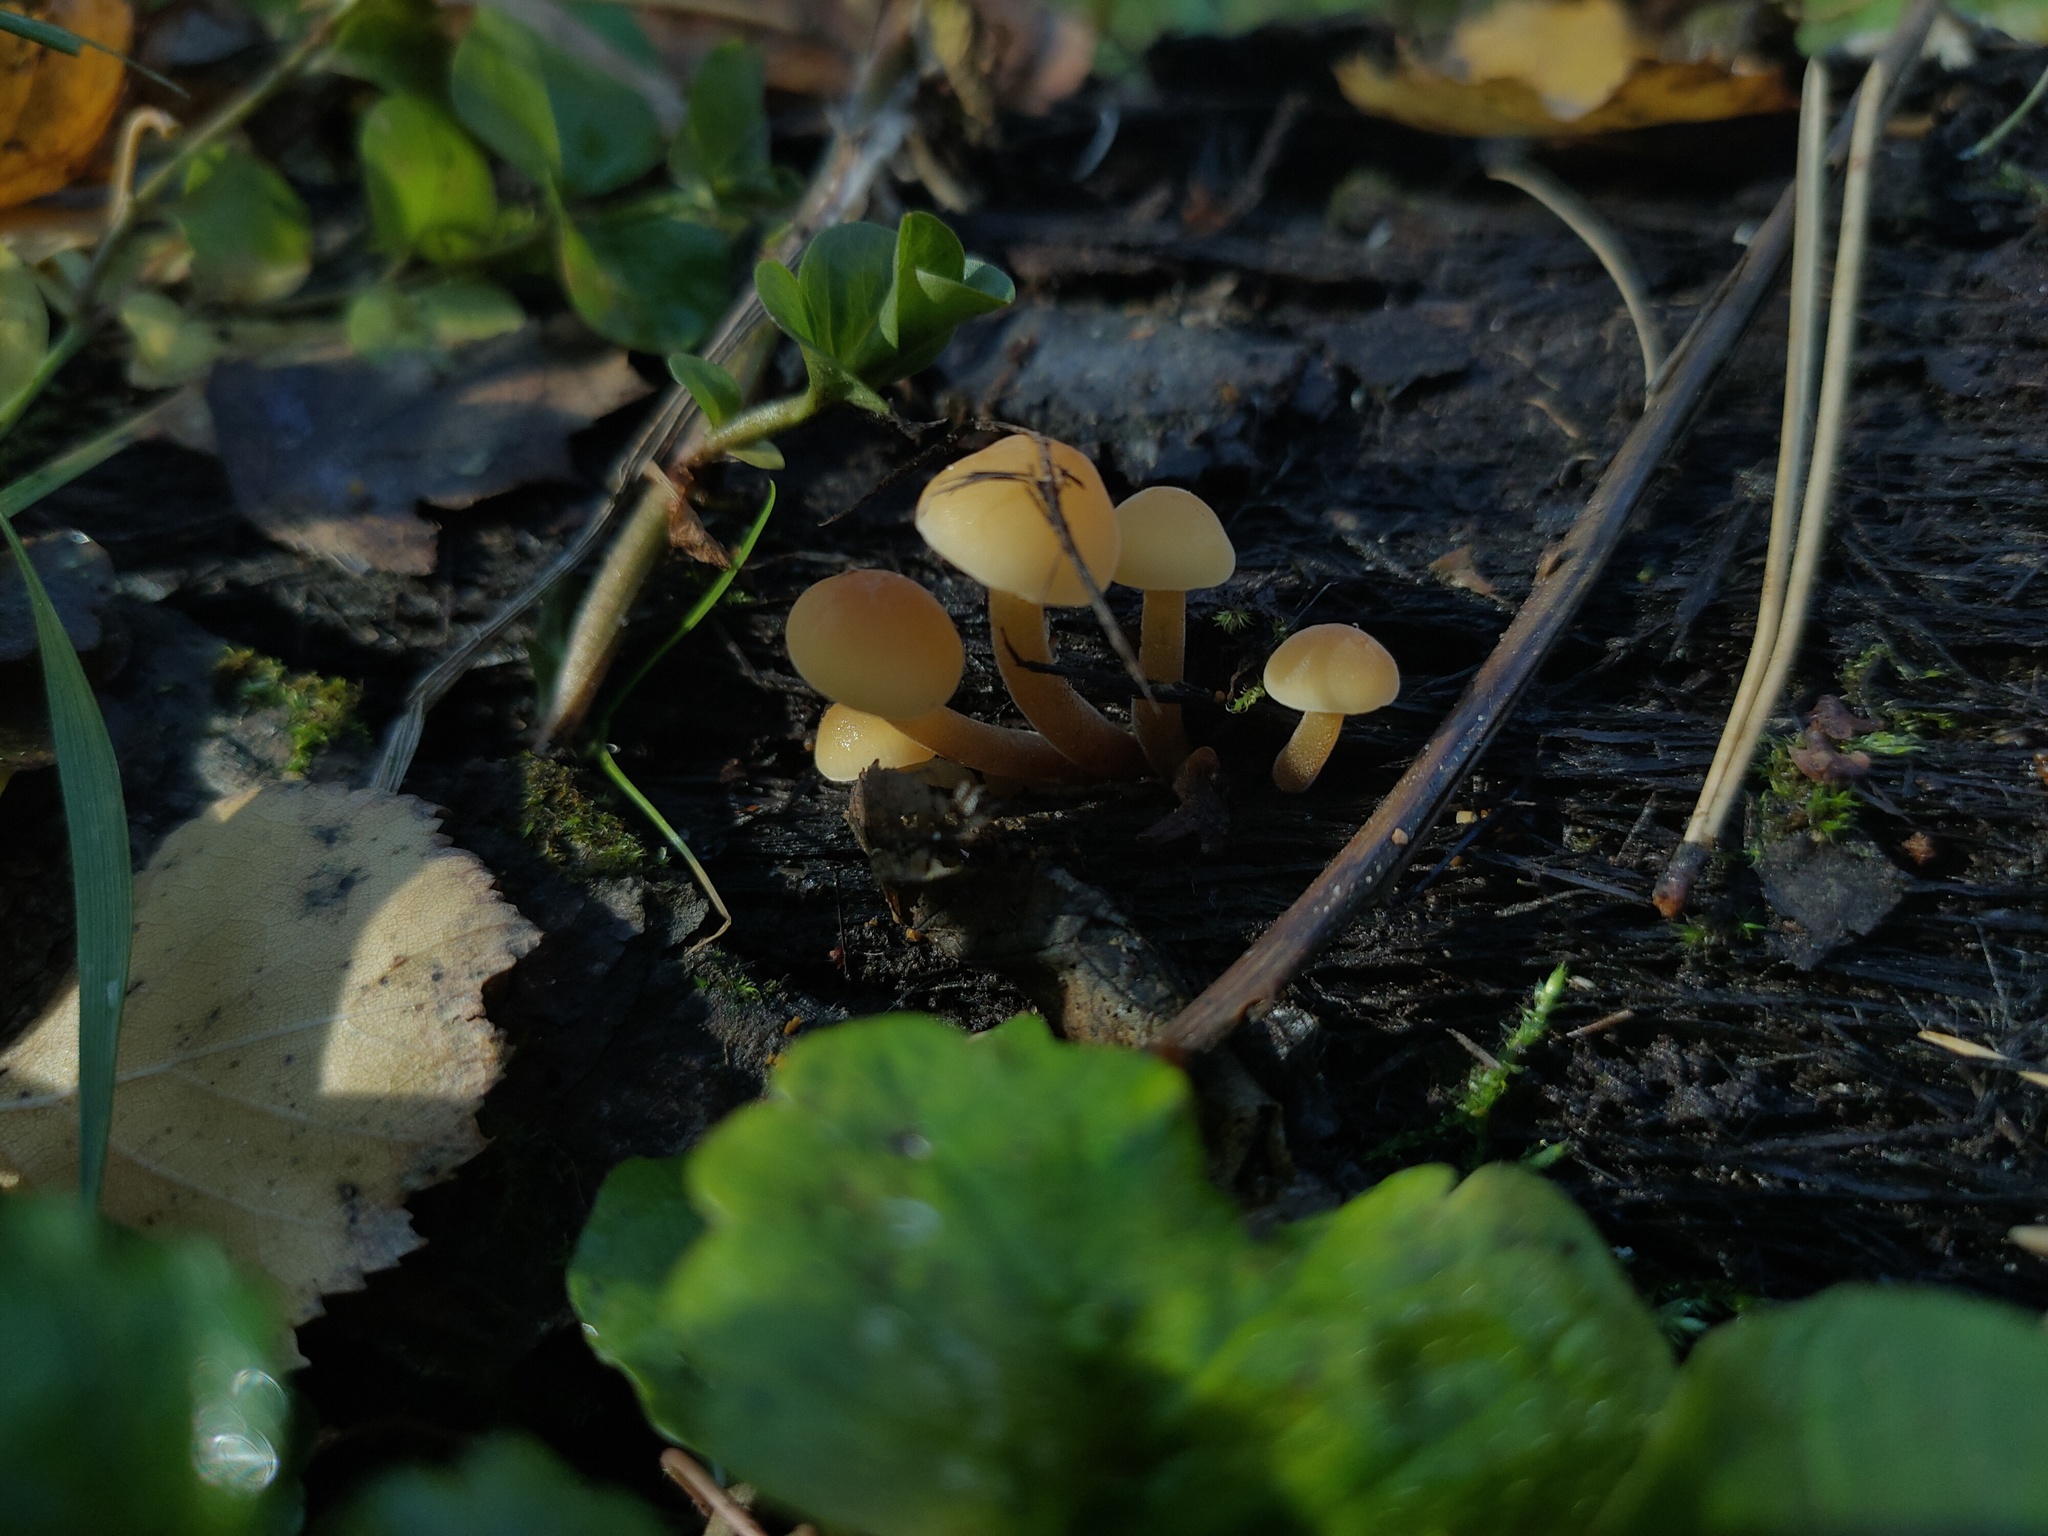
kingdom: Fungi
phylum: Basidiomycota
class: Agaricomycetes
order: Agaricales
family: Physalacriaceae
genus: Flammulina
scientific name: Flammulina
